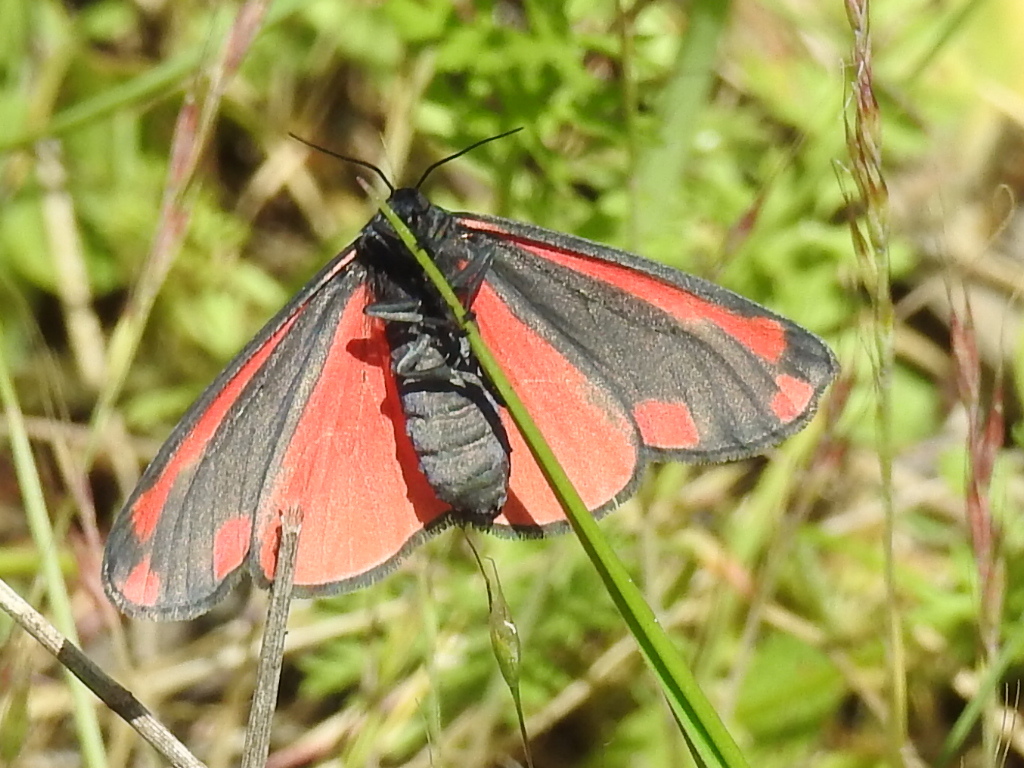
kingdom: Animalia
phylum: Arthropoda
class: Insecta
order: Lepidoptera
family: Erebidae
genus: Tyria
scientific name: Tyria jacobaeae
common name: Cinnabar
